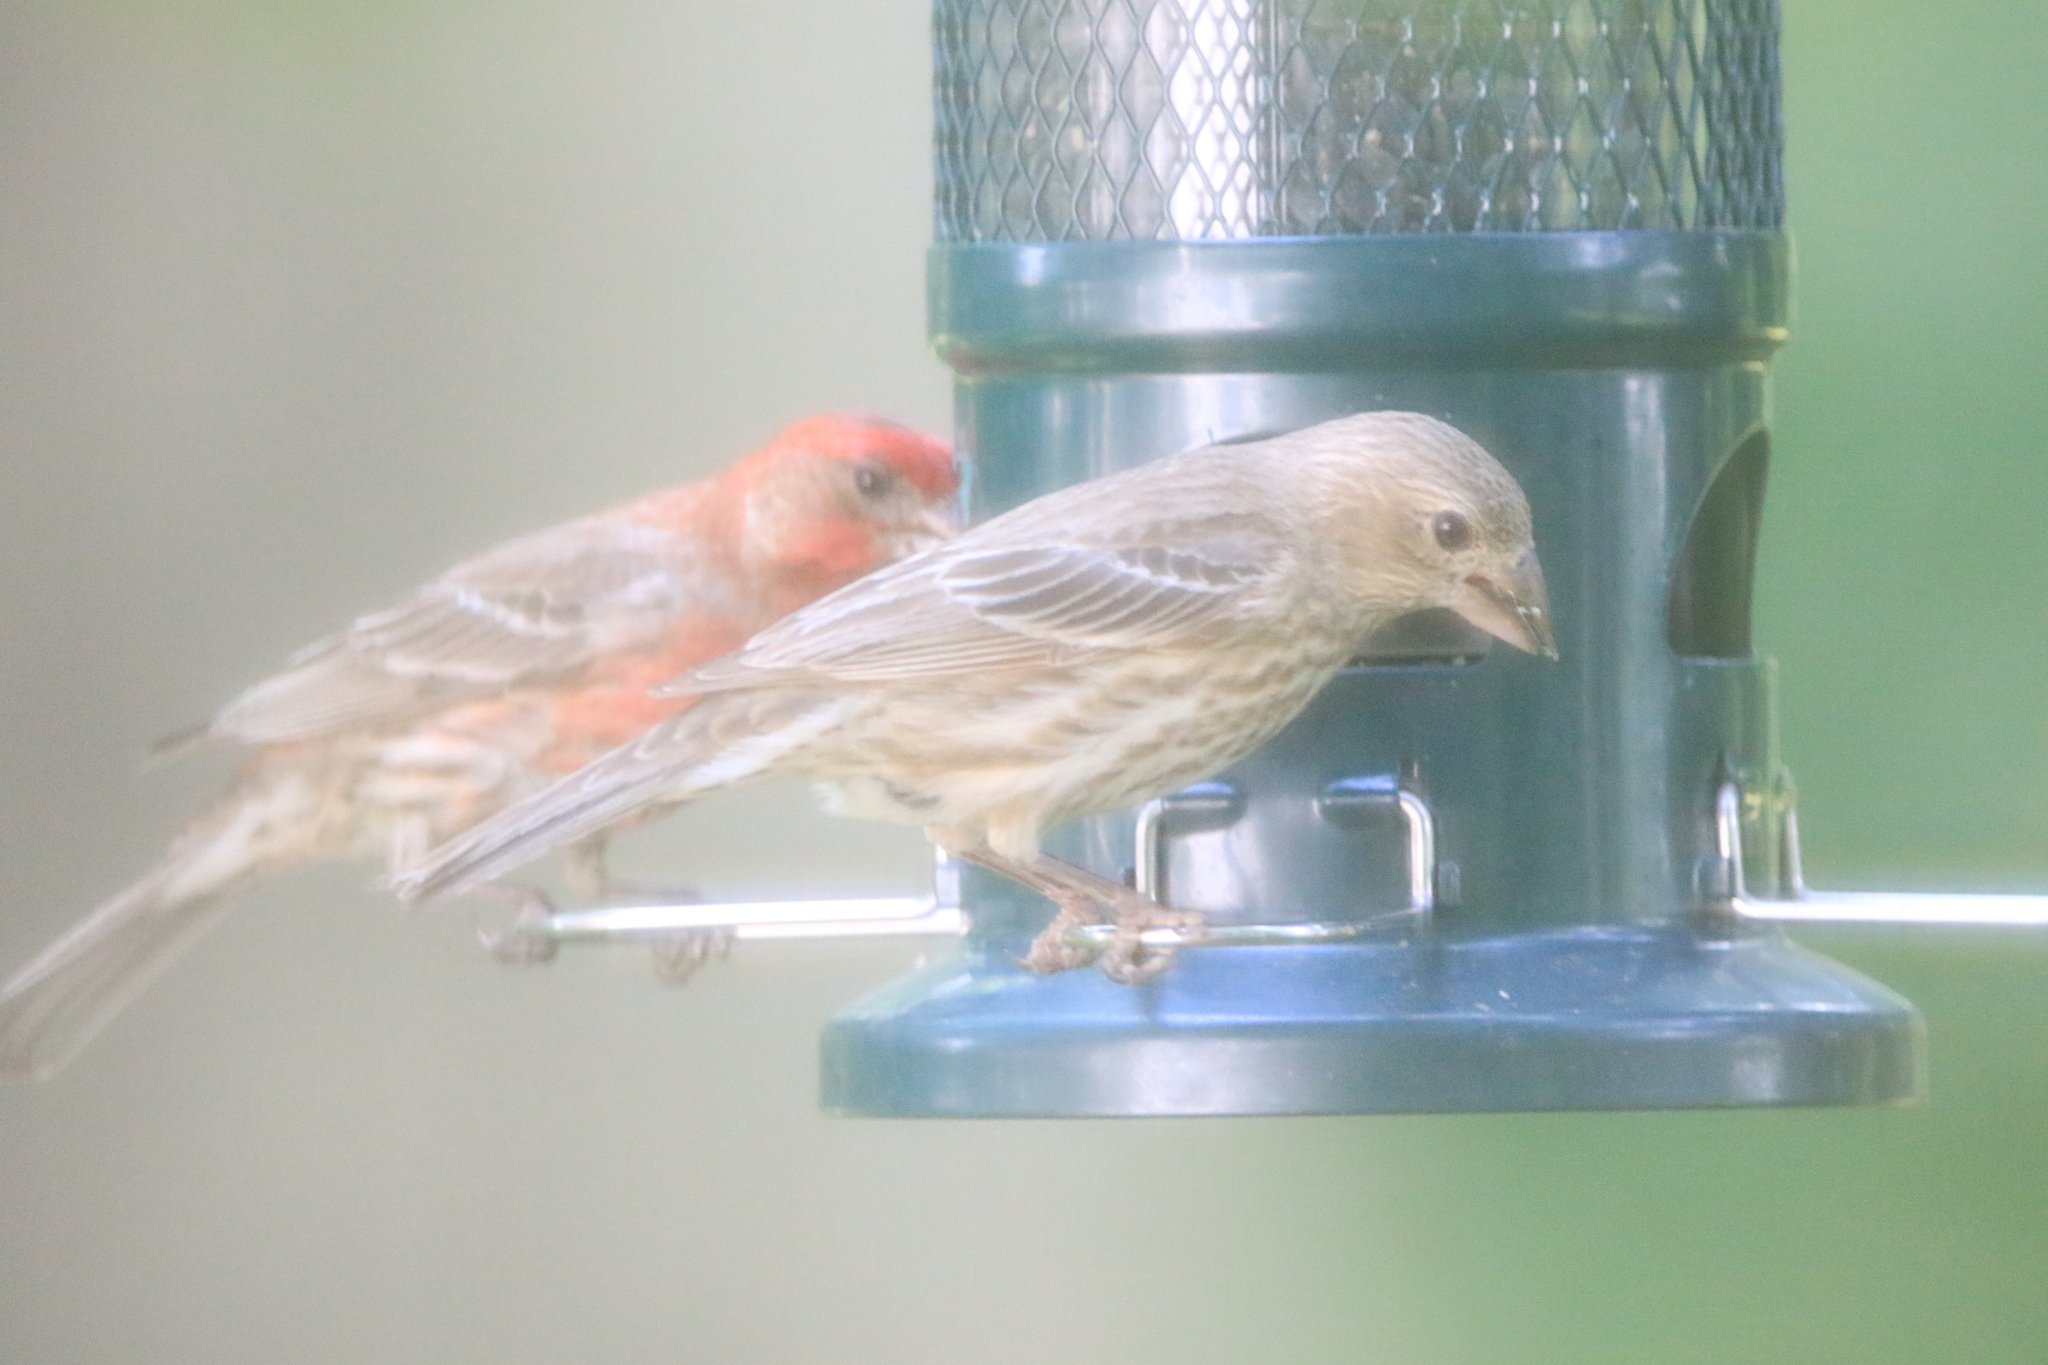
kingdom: Animalia
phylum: Chordata
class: Aves
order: Passeriformes
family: Fringillidae
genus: Haemorhous
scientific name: Haemorhous mexicanus
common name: House finch
